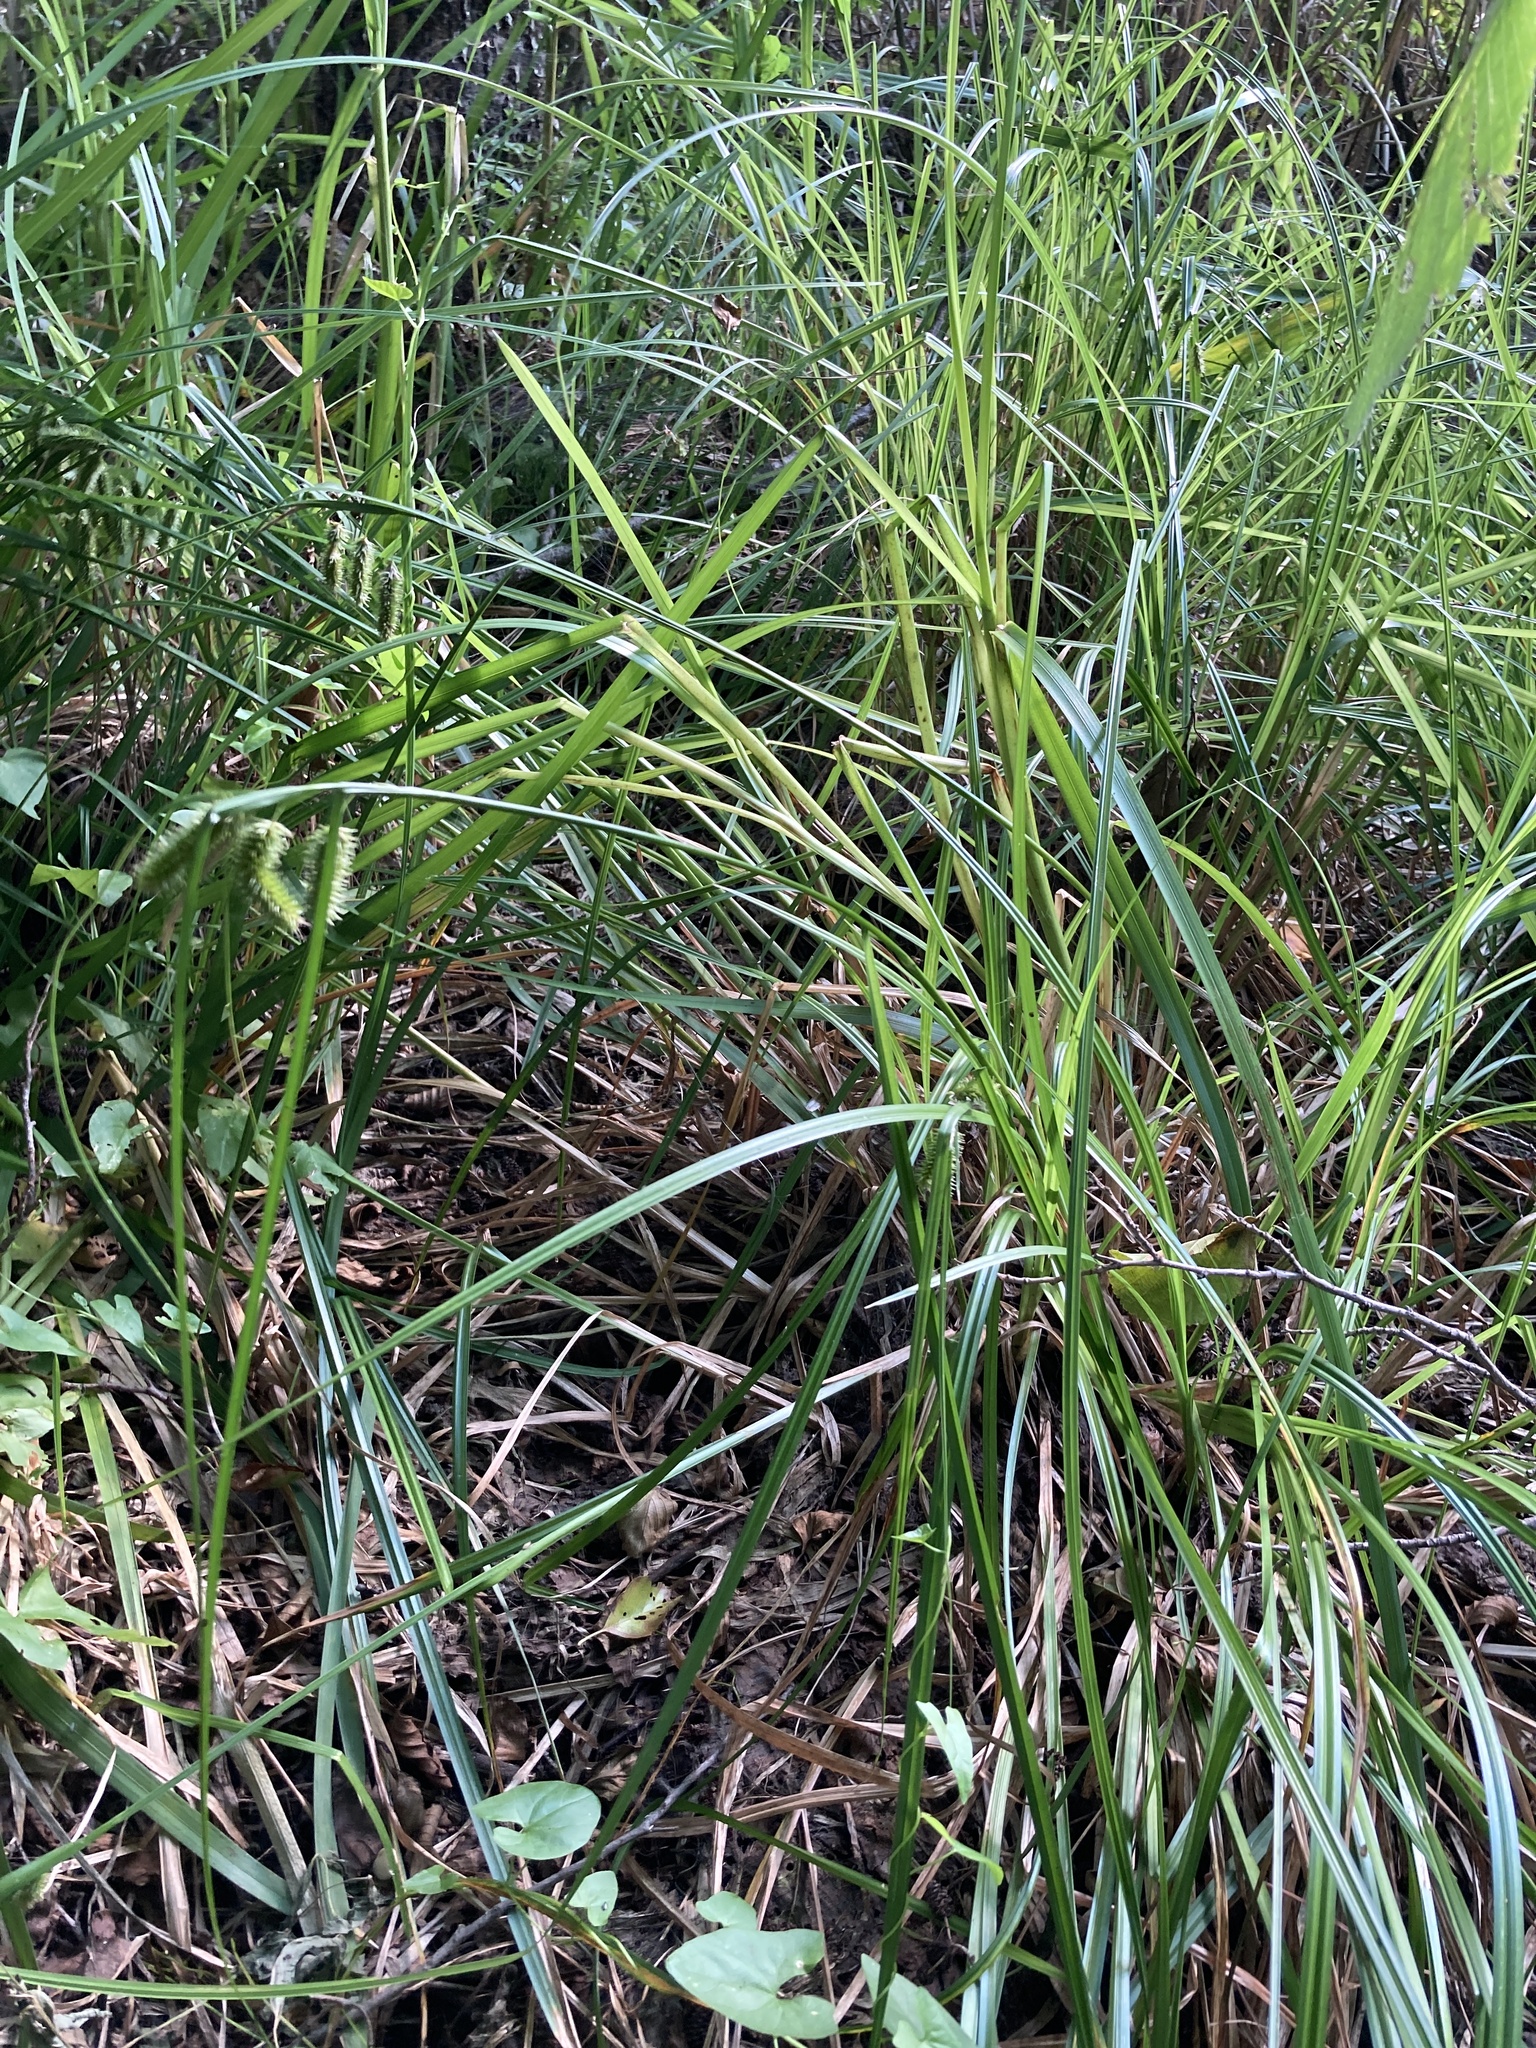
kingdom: Plantae
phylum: Tracheophyta
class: Liliopsida
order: Poales
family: Cyperaceae
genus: Carex
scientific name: Carex pseudocyperus
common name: Cyperus sedge
